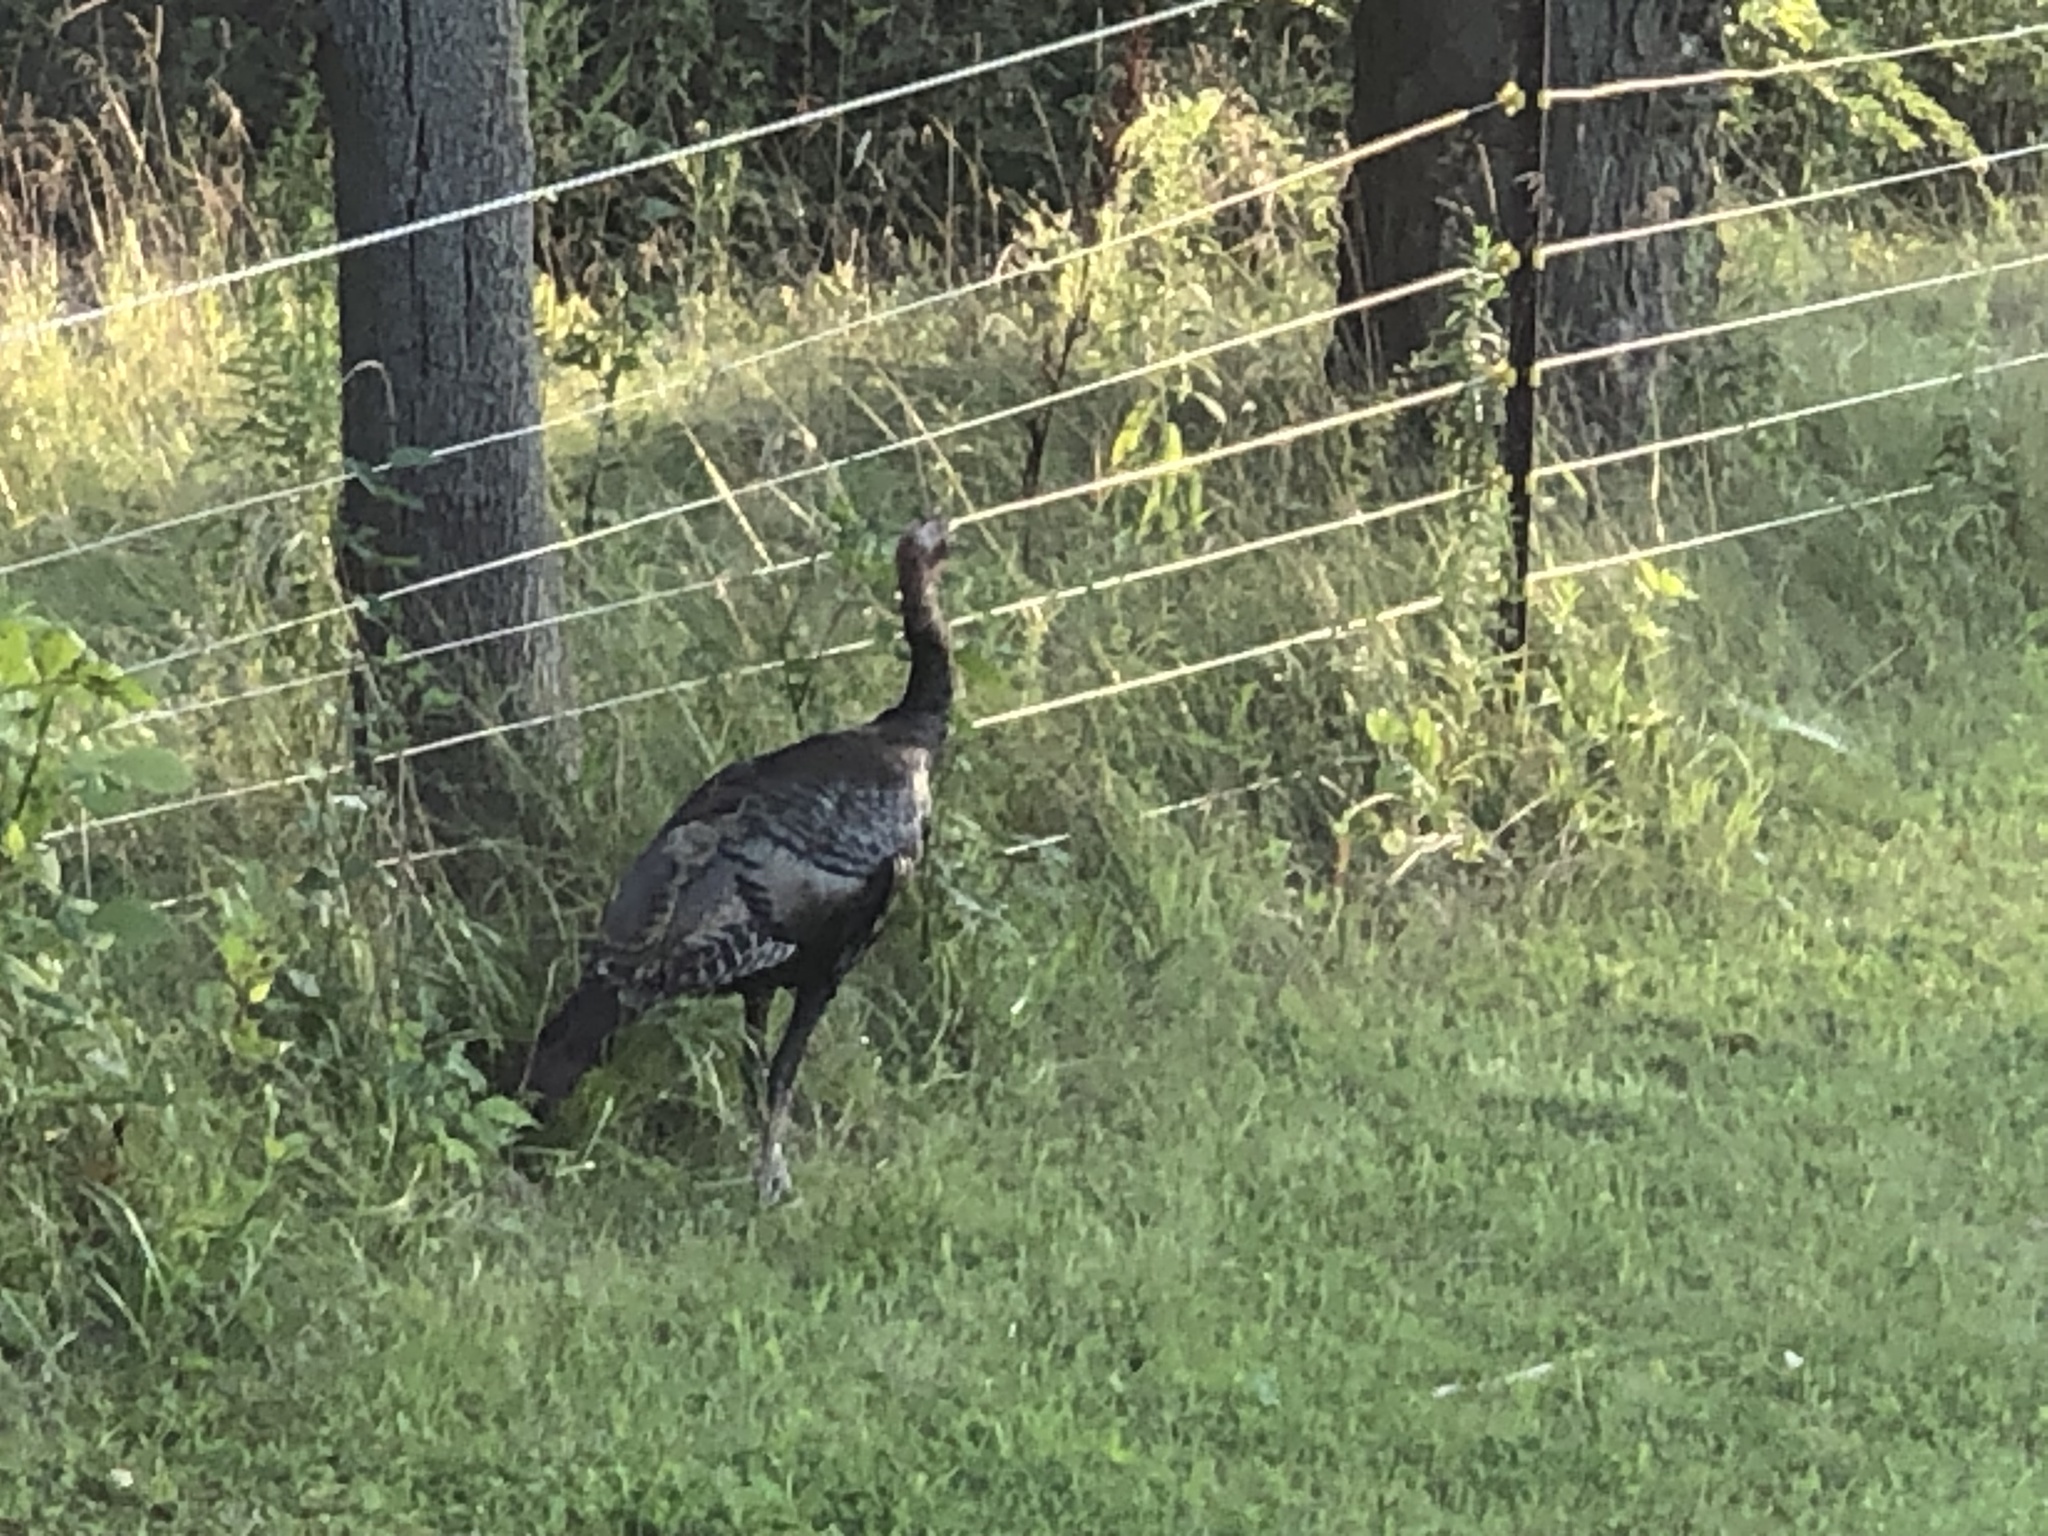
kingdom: Animalia
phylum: Chordata
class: Aves
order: Galliformes
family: Phasianidae
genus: Meleagris
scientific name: Meleagris gallopavo
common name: Wild turkey
